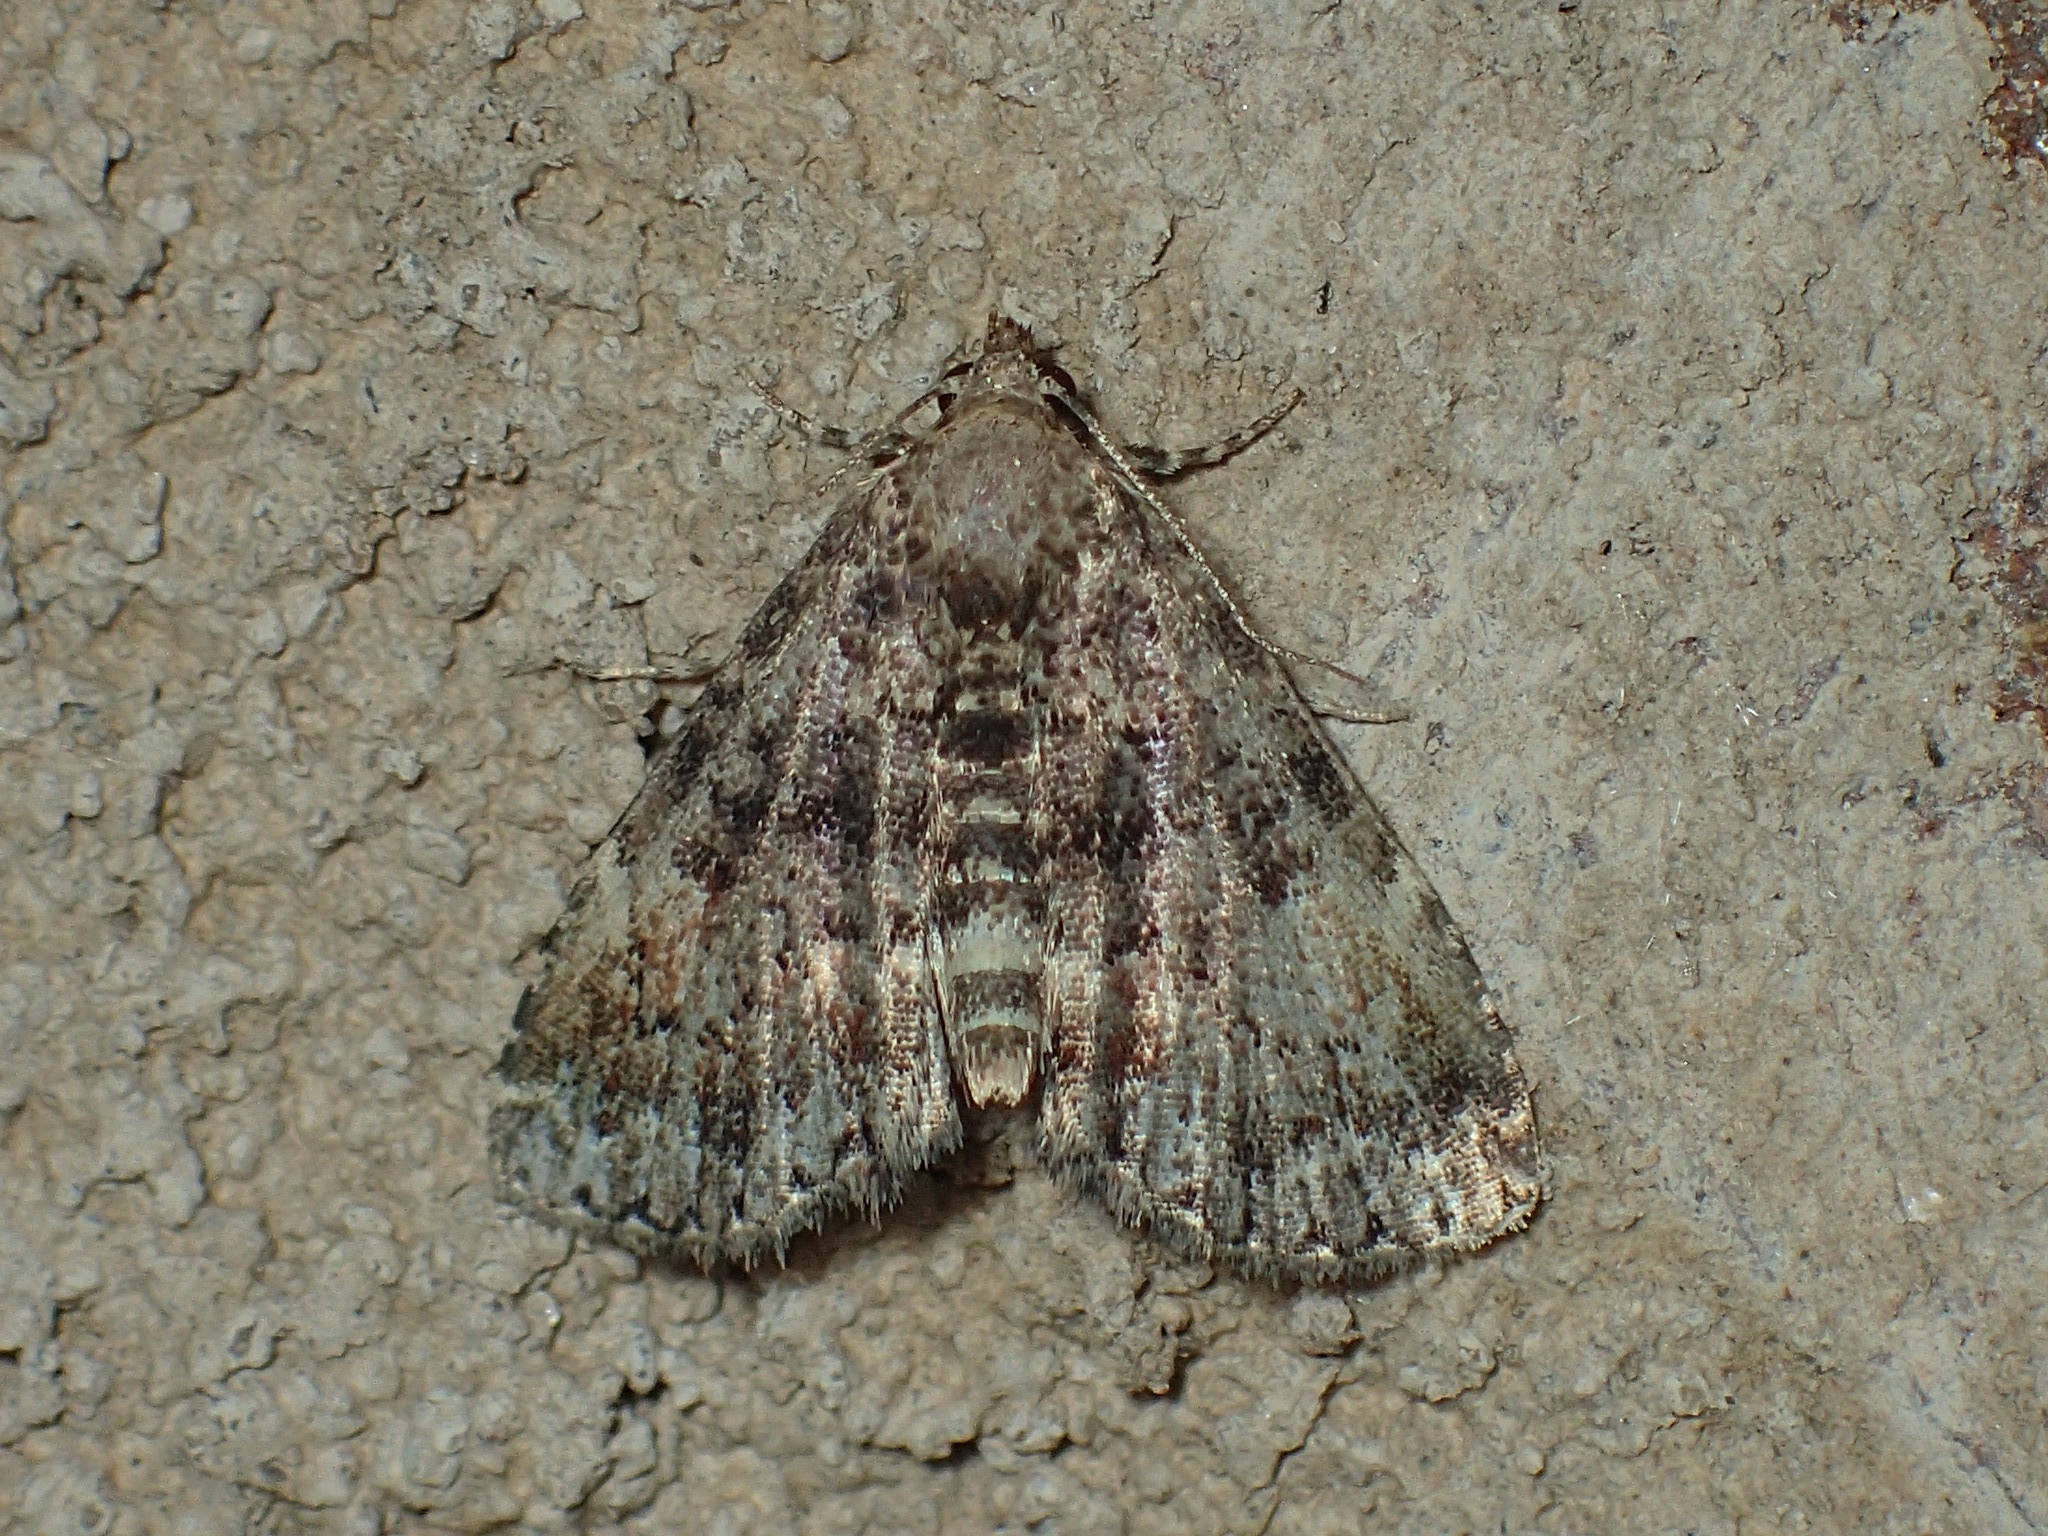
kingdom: Animalia
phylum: Arthropoda
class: Insecta
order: Lepidoptera
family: Erebidae
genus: Metalectra
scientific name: Metalectra richardsi
